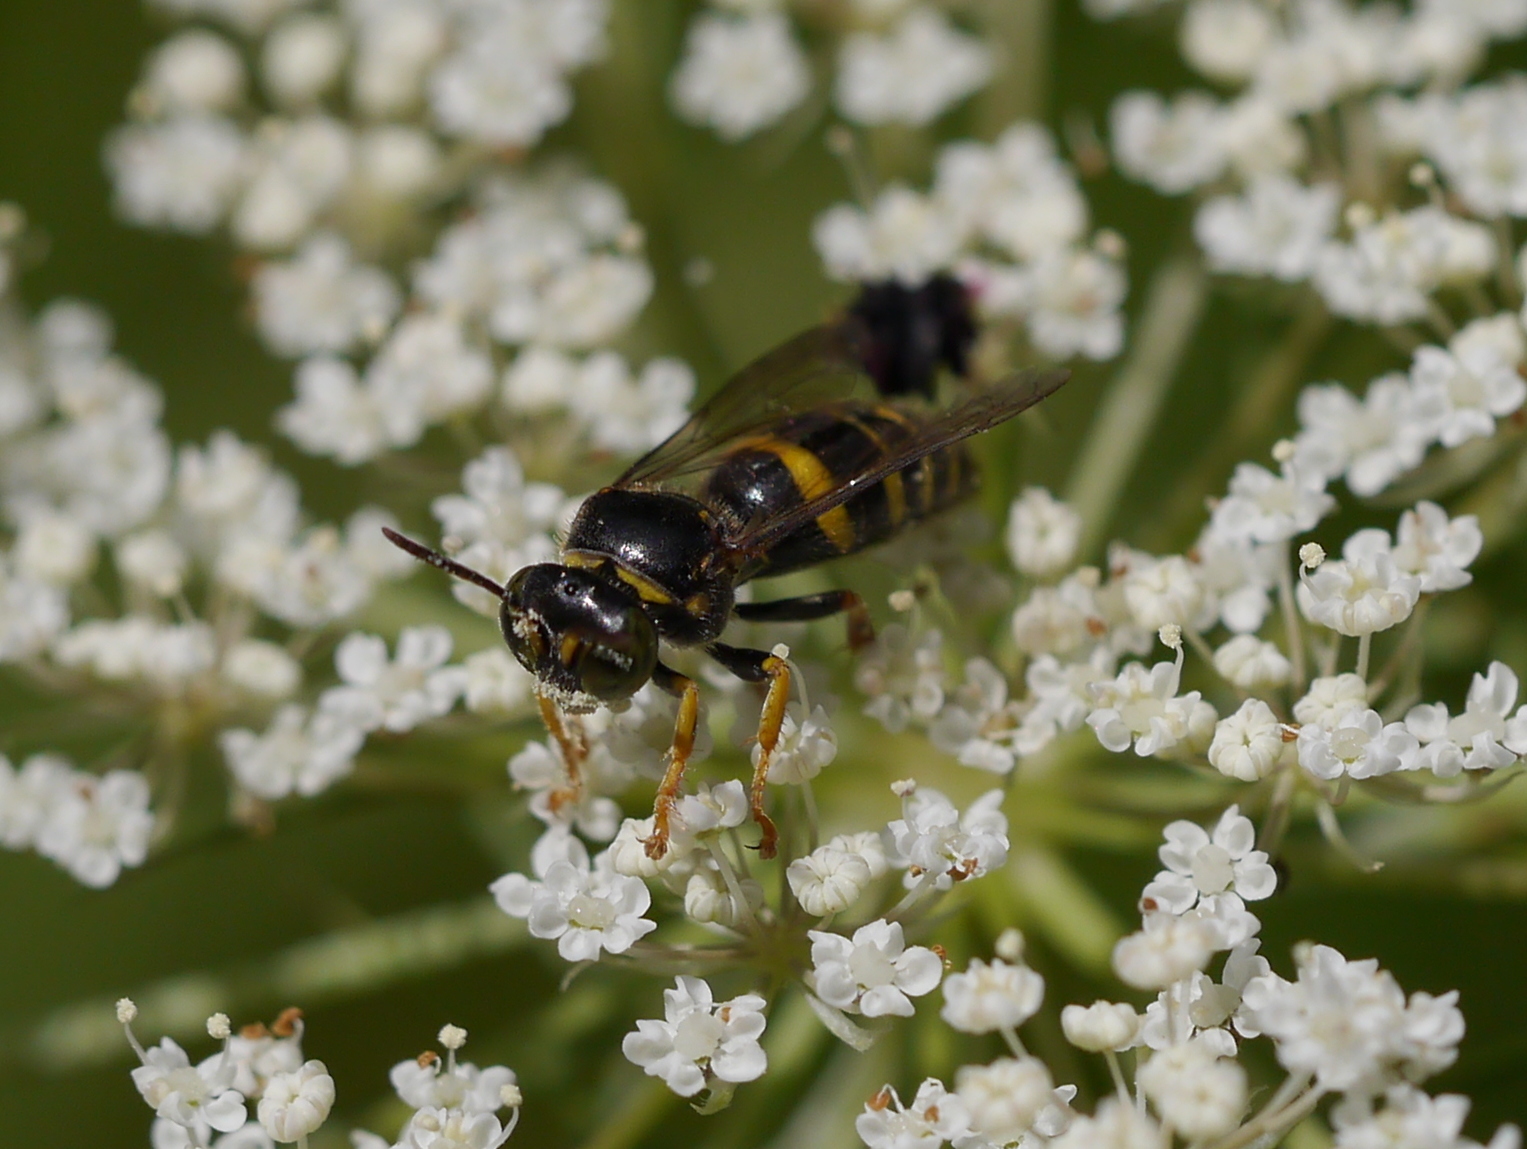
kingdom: Animalia
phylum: Arthropoda
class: Insecta
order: Hymenoptera
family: Crabronidae
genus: Bembecinus
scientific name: Bembecinus nanus
